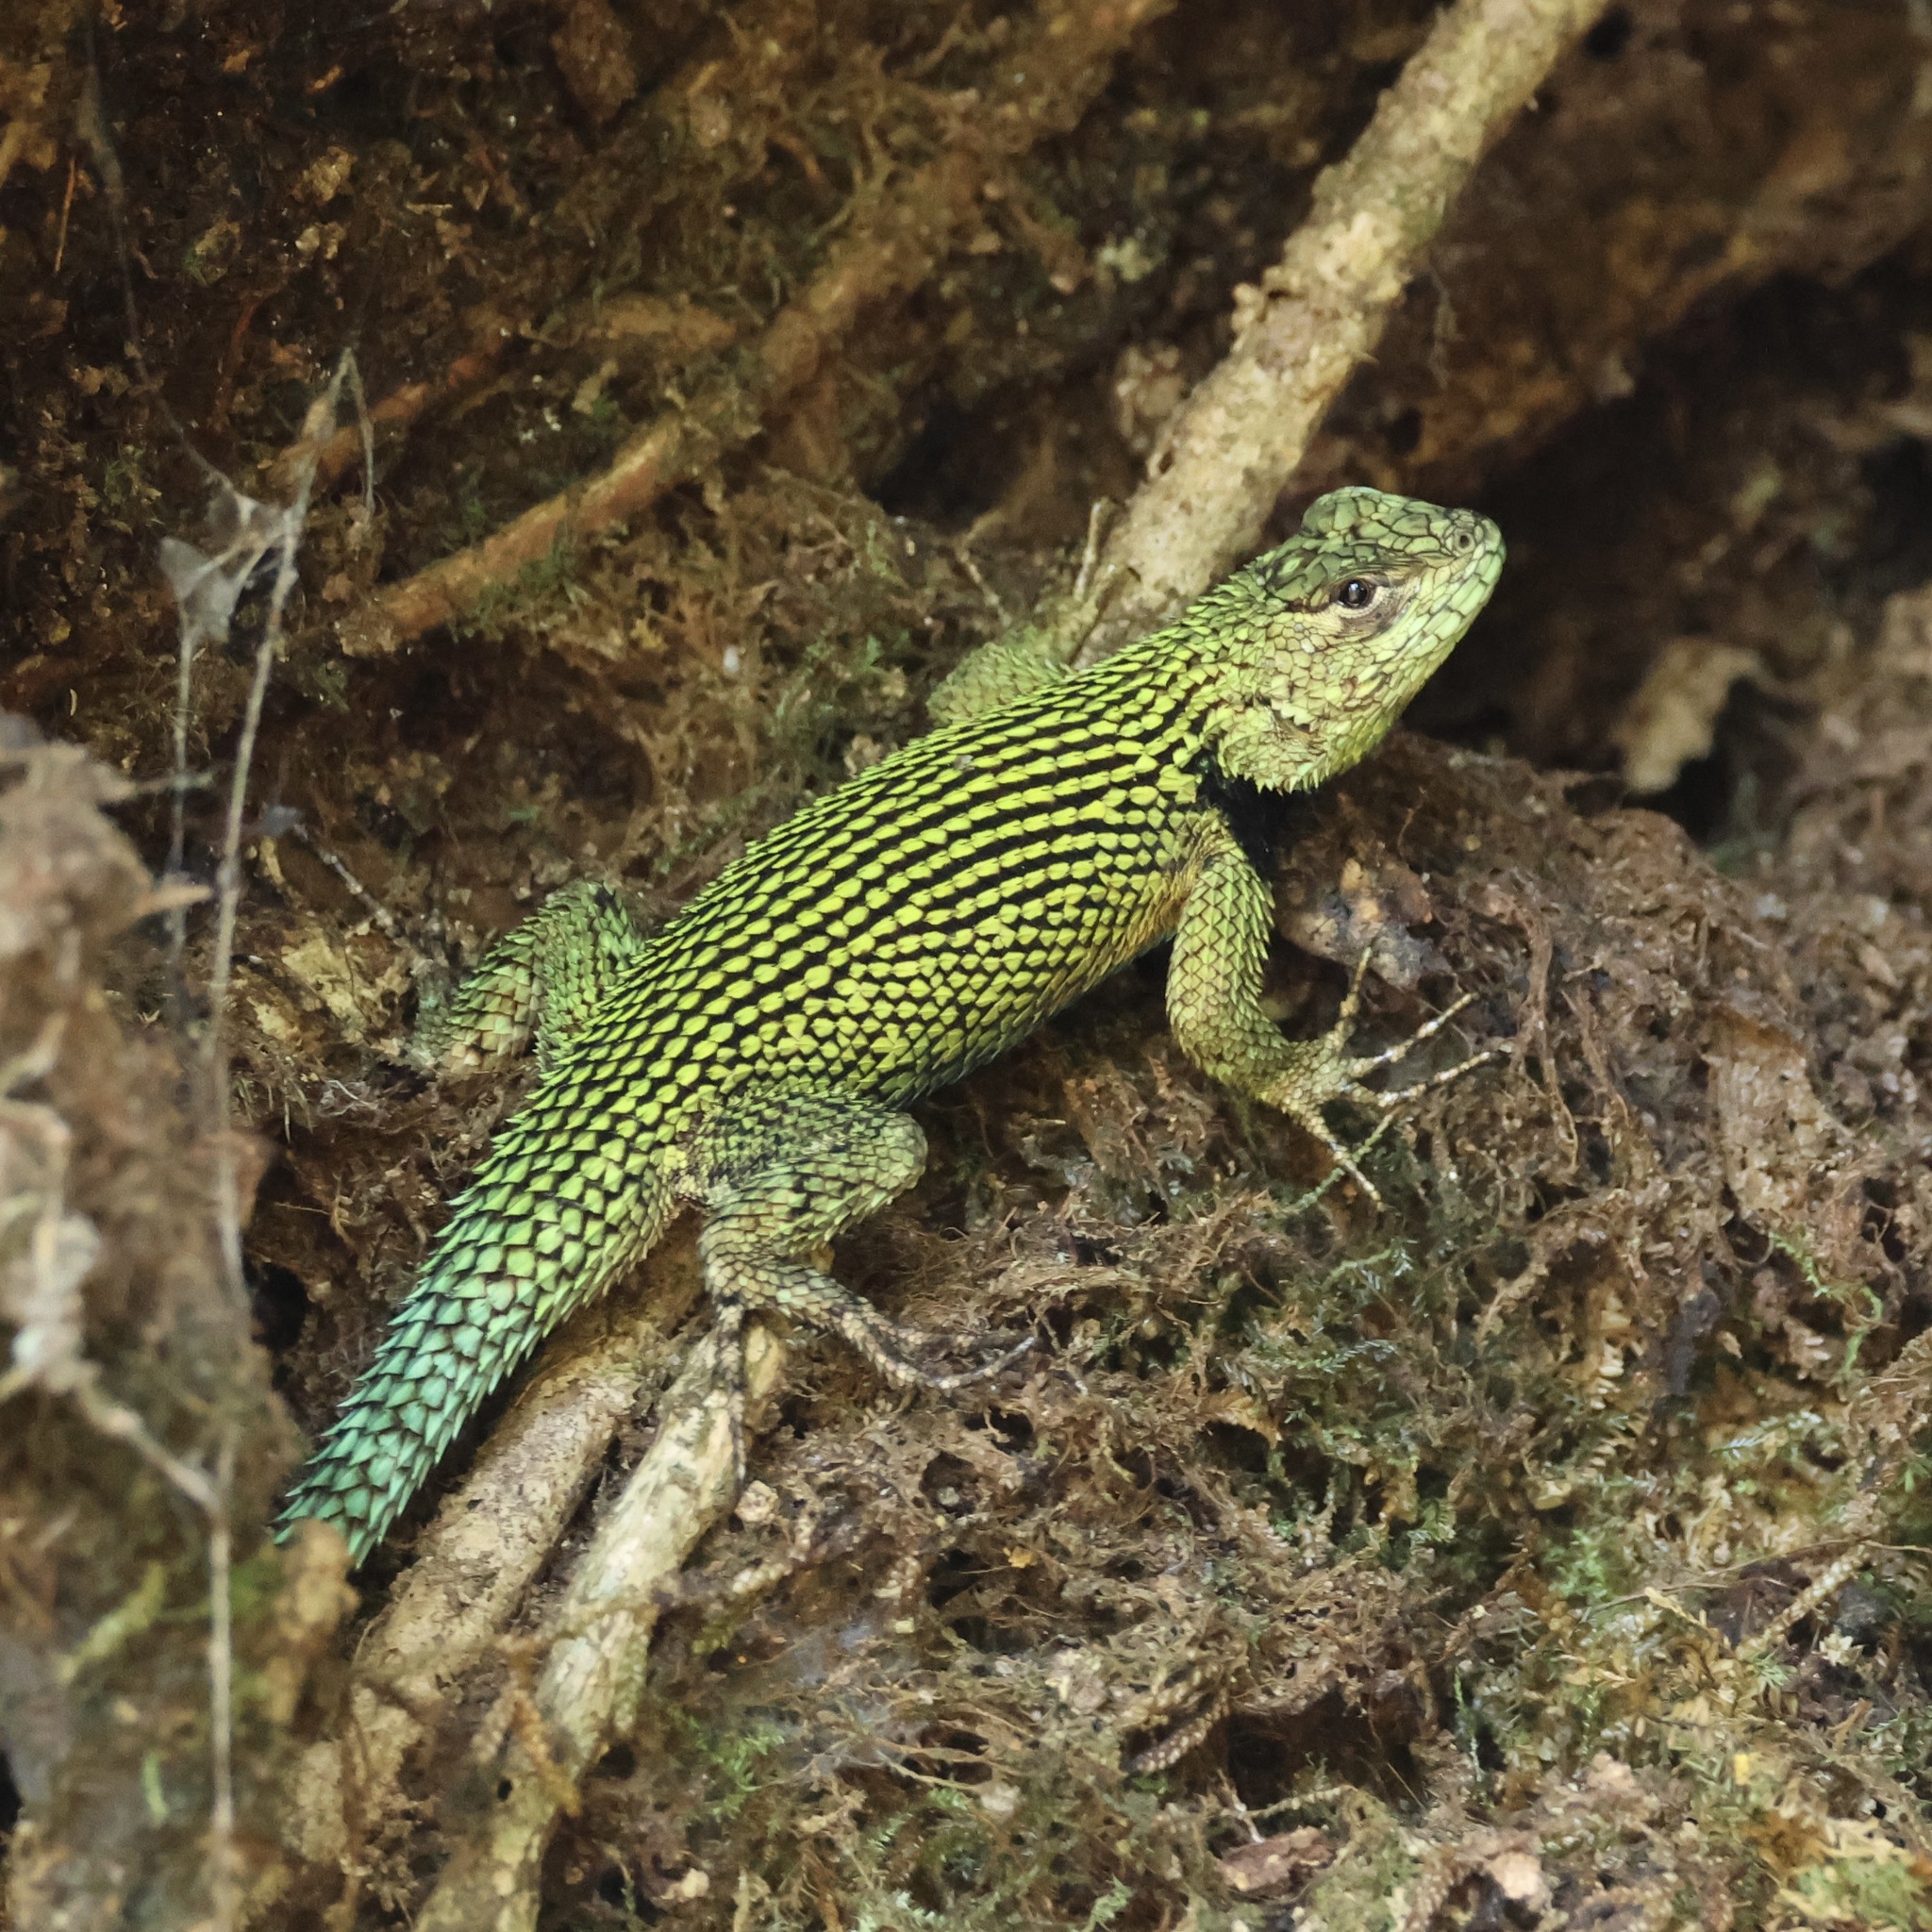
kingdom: Animalia
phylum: Chordata
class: Squamata
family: Phrynosomatidae
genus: Sceloporus
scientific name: Sceloporus malachiticus
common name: Green spiny lizard
